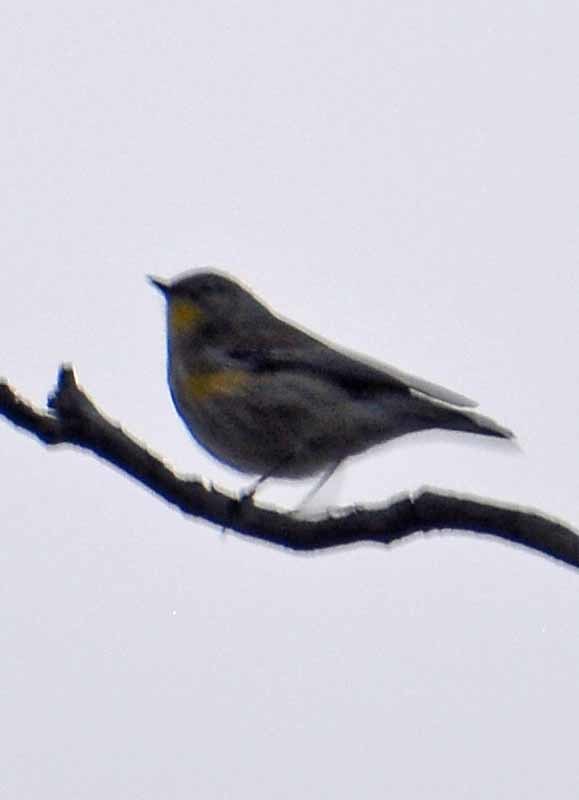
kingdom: Animalia
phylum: Chordata
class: Aves
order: Passeriformes
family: Parulidae
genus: Setophaga
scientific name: Setophaga coronata
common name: Myrtle warbler
